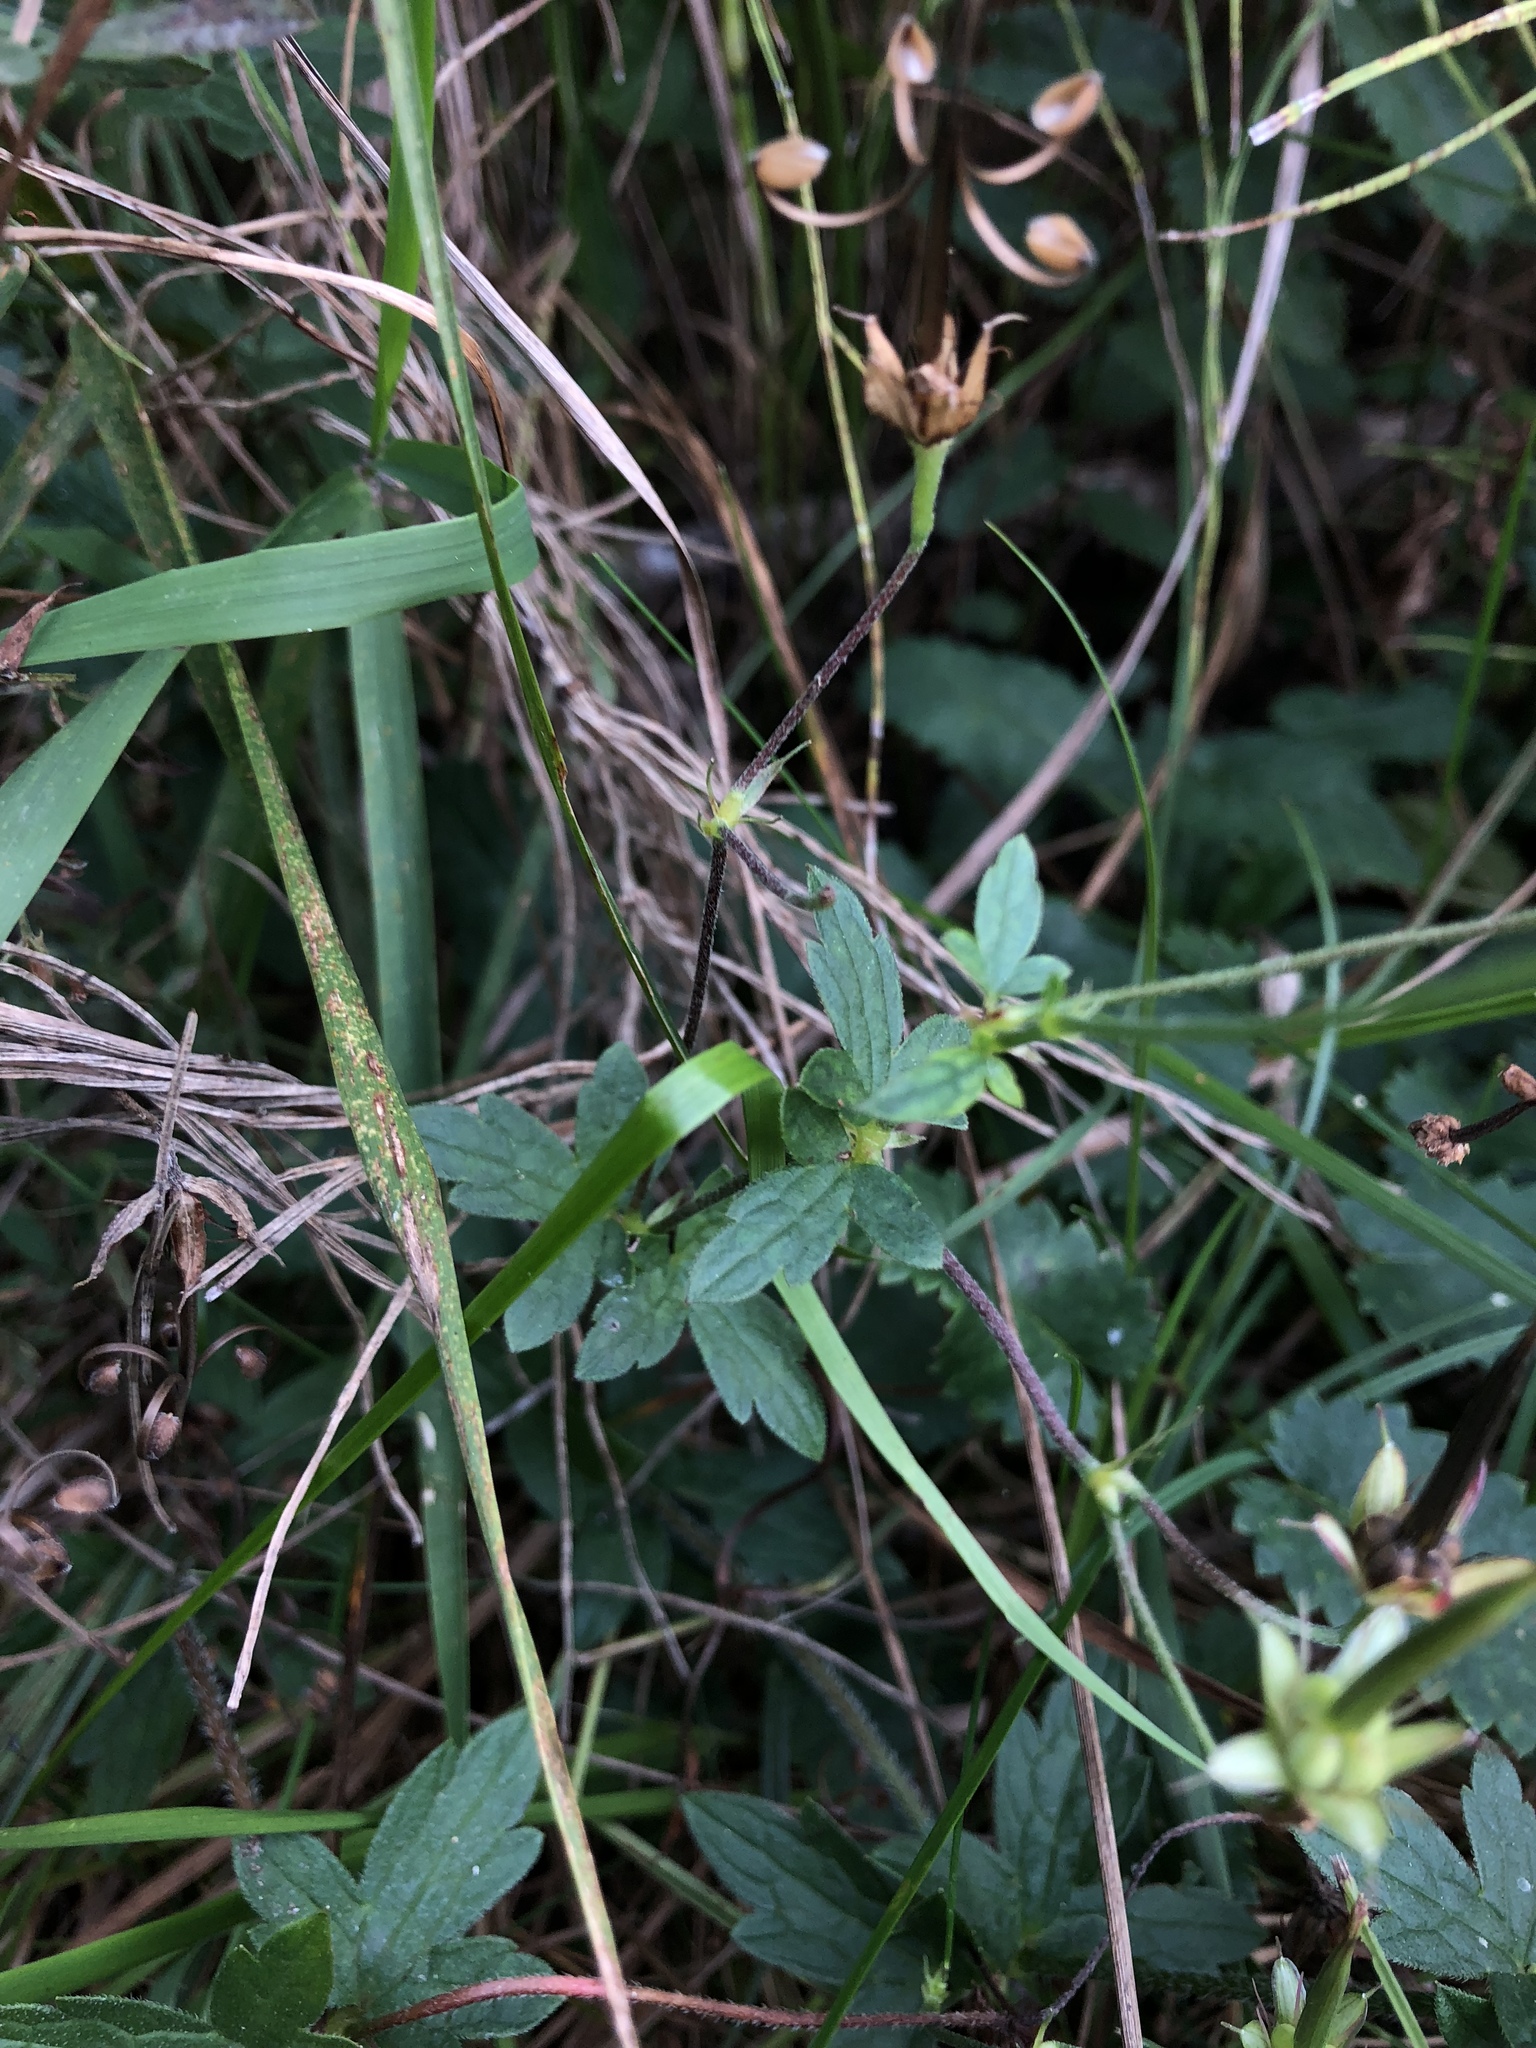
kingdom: Plantae
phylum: Tracheophyta
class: Magnoliopsida
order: Geraniales
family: Geraniaceae
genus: Geranium
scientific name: Geranium sanguineum
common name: Bloody crane's-bill
